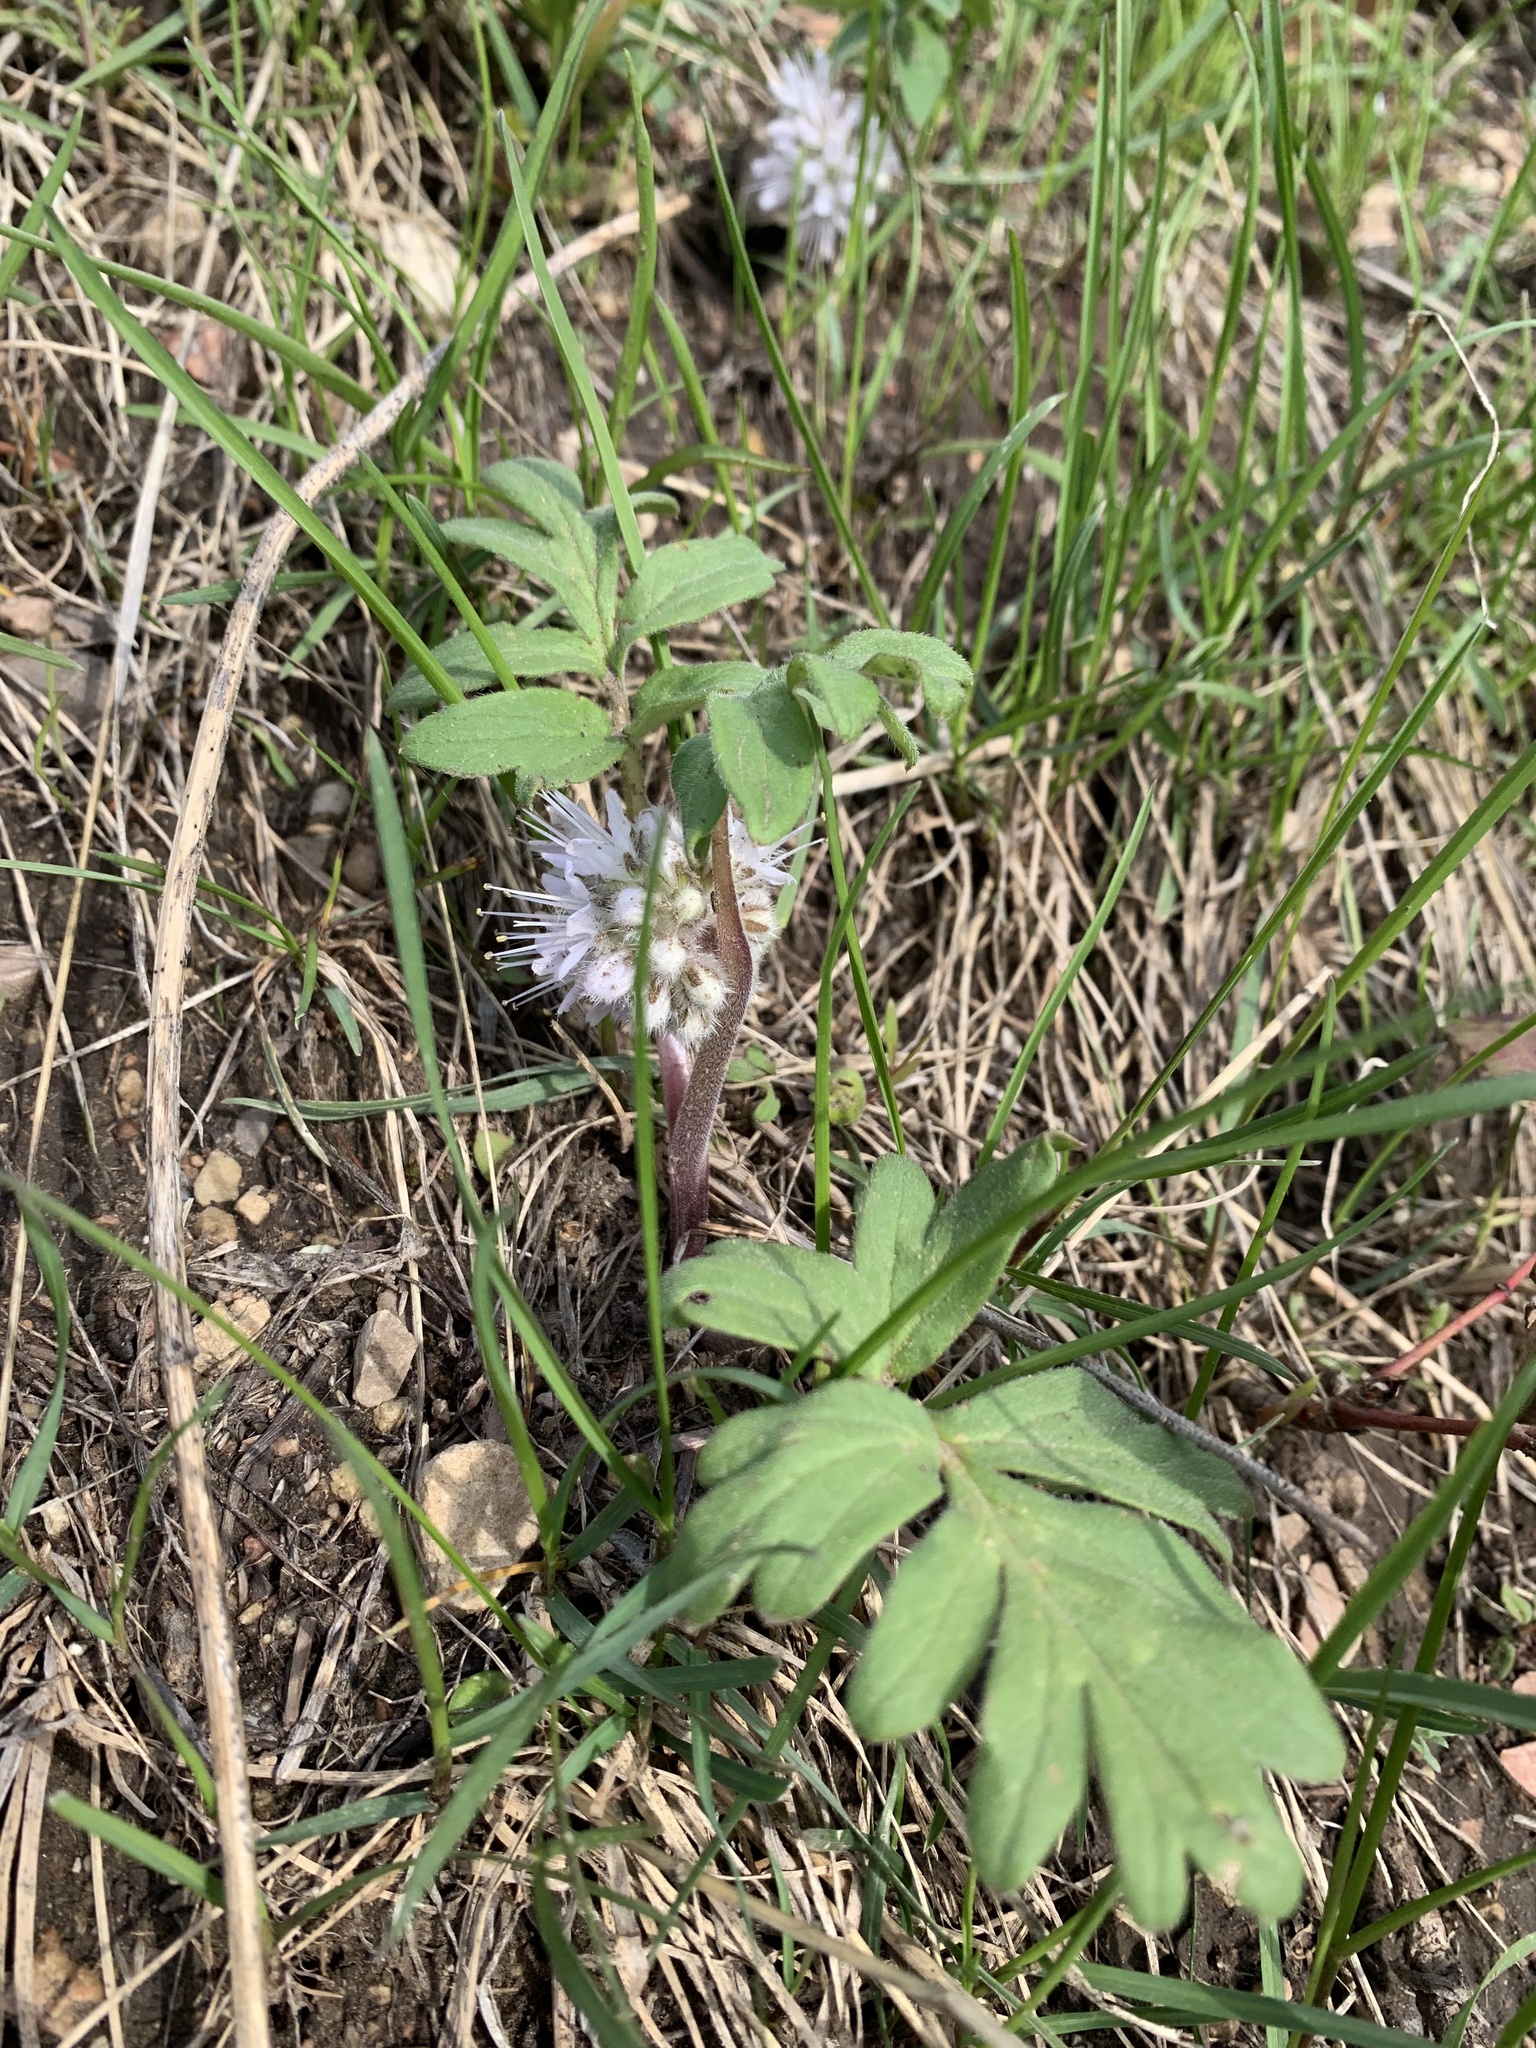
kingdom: Plantae
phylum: Tracheophyta
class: Magnoliopsida
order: Boraginales
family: Hydrophyllaceae
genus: Hydrophyllum
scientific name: Hydrophyllum capitatum
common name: Woollen-breeches
